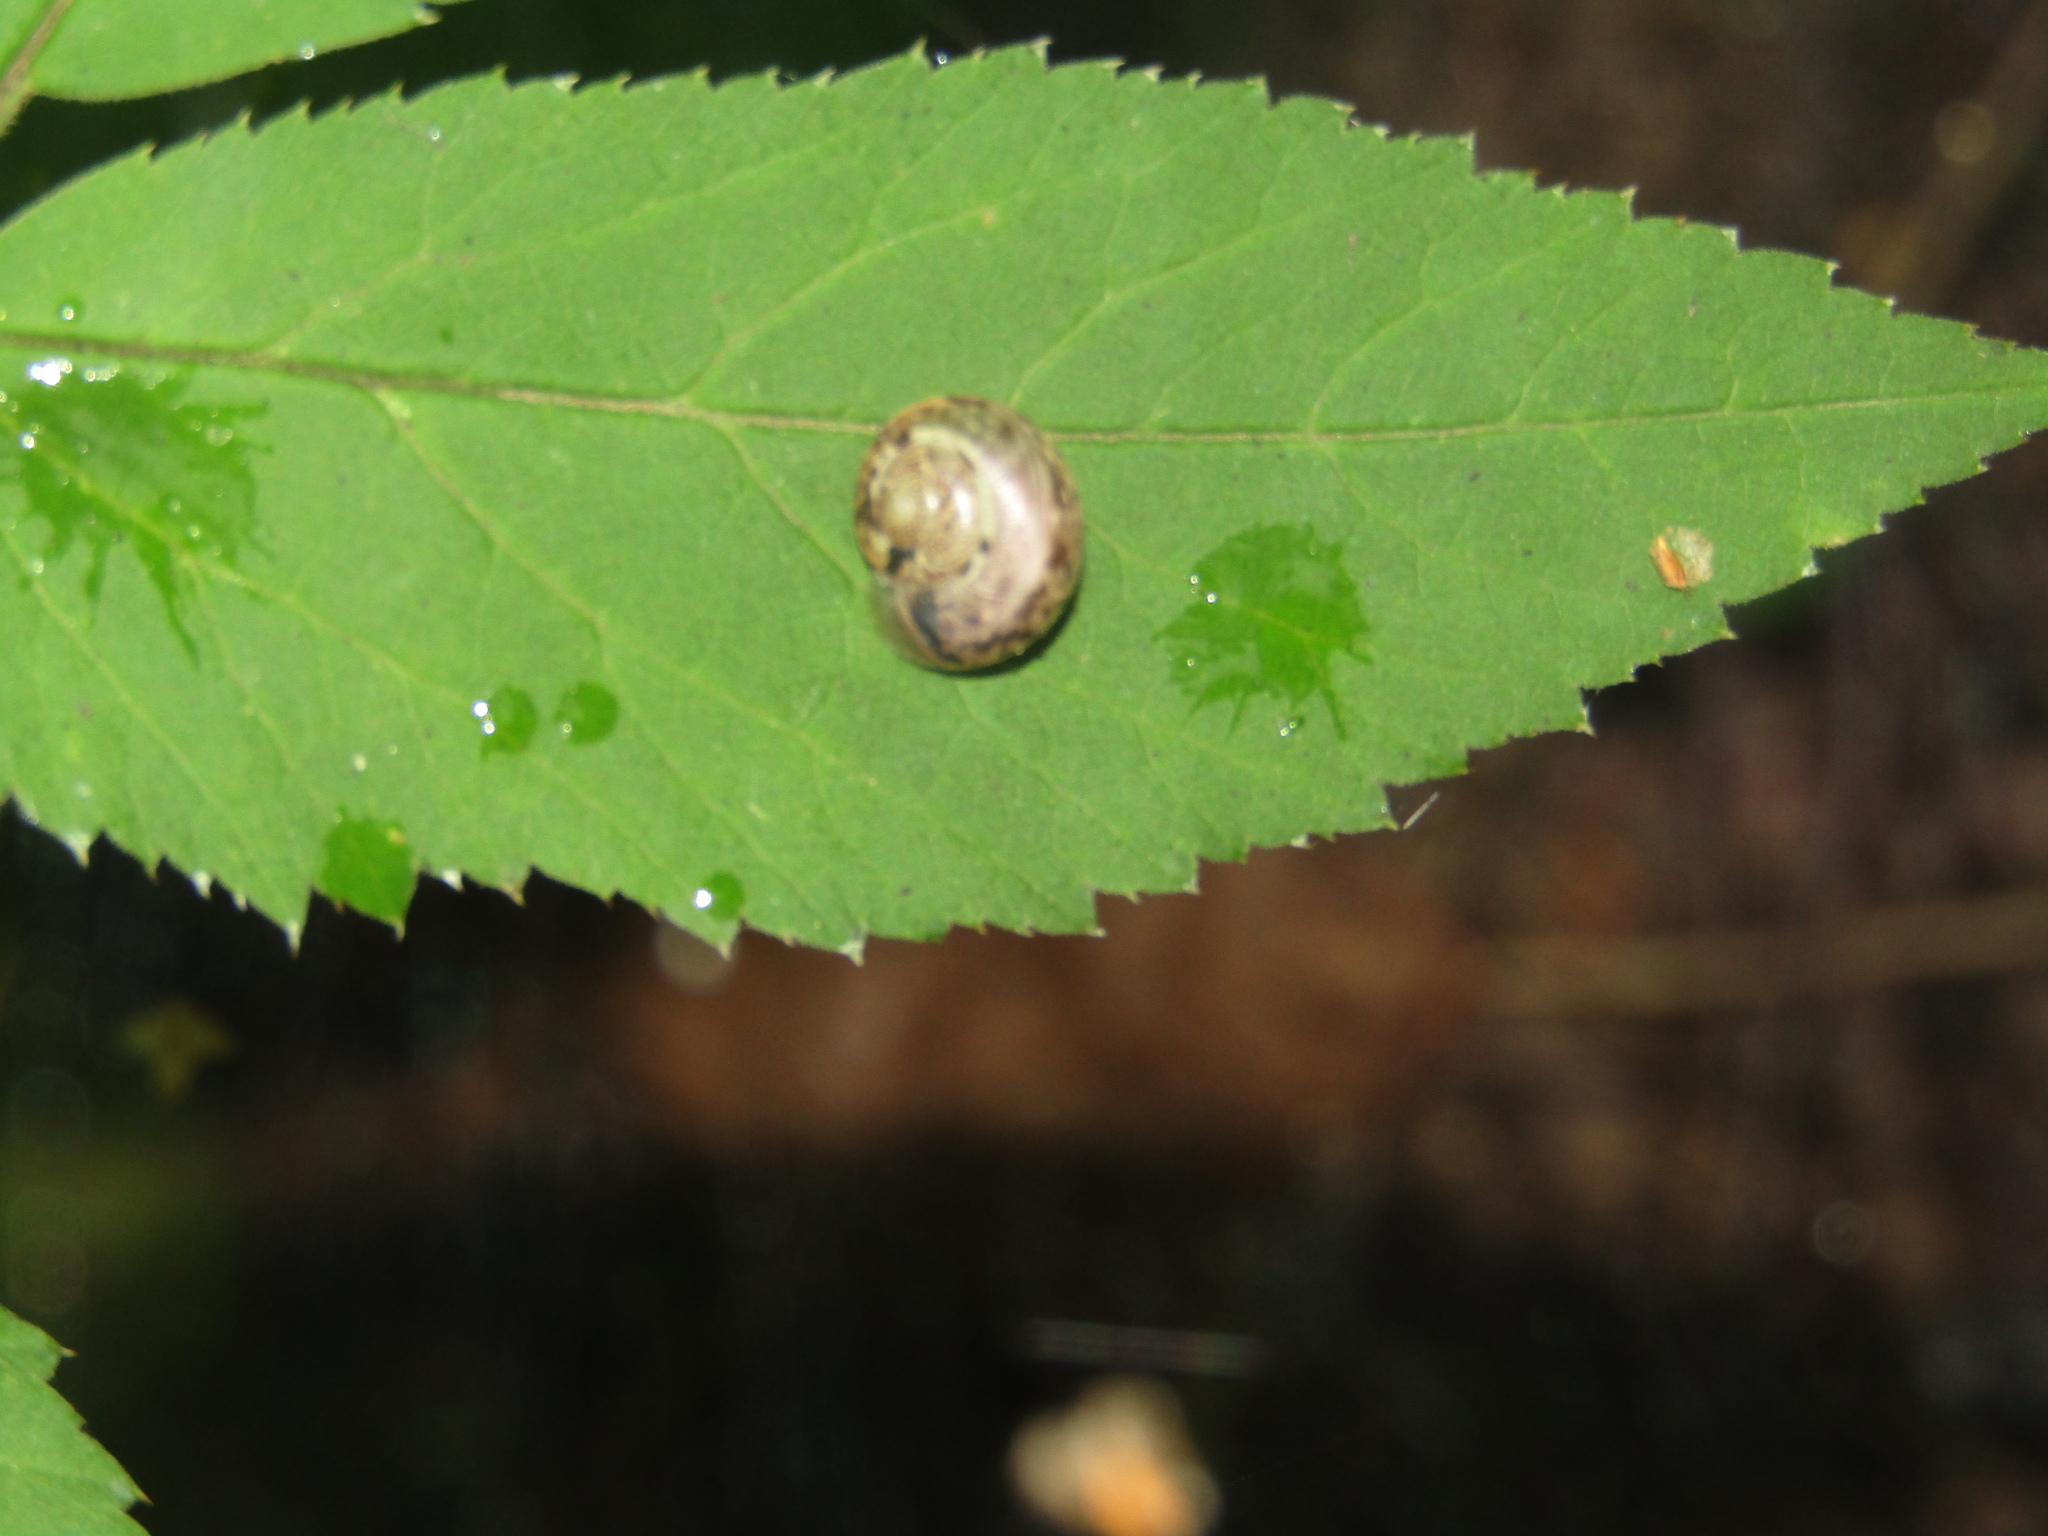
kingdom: Animalia
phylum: Mollusca
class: Gastropoda
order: Stylommatophora
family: Camaenidae
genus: Fruticicola
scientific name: Fruticicola fruticum
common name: Bush snail
